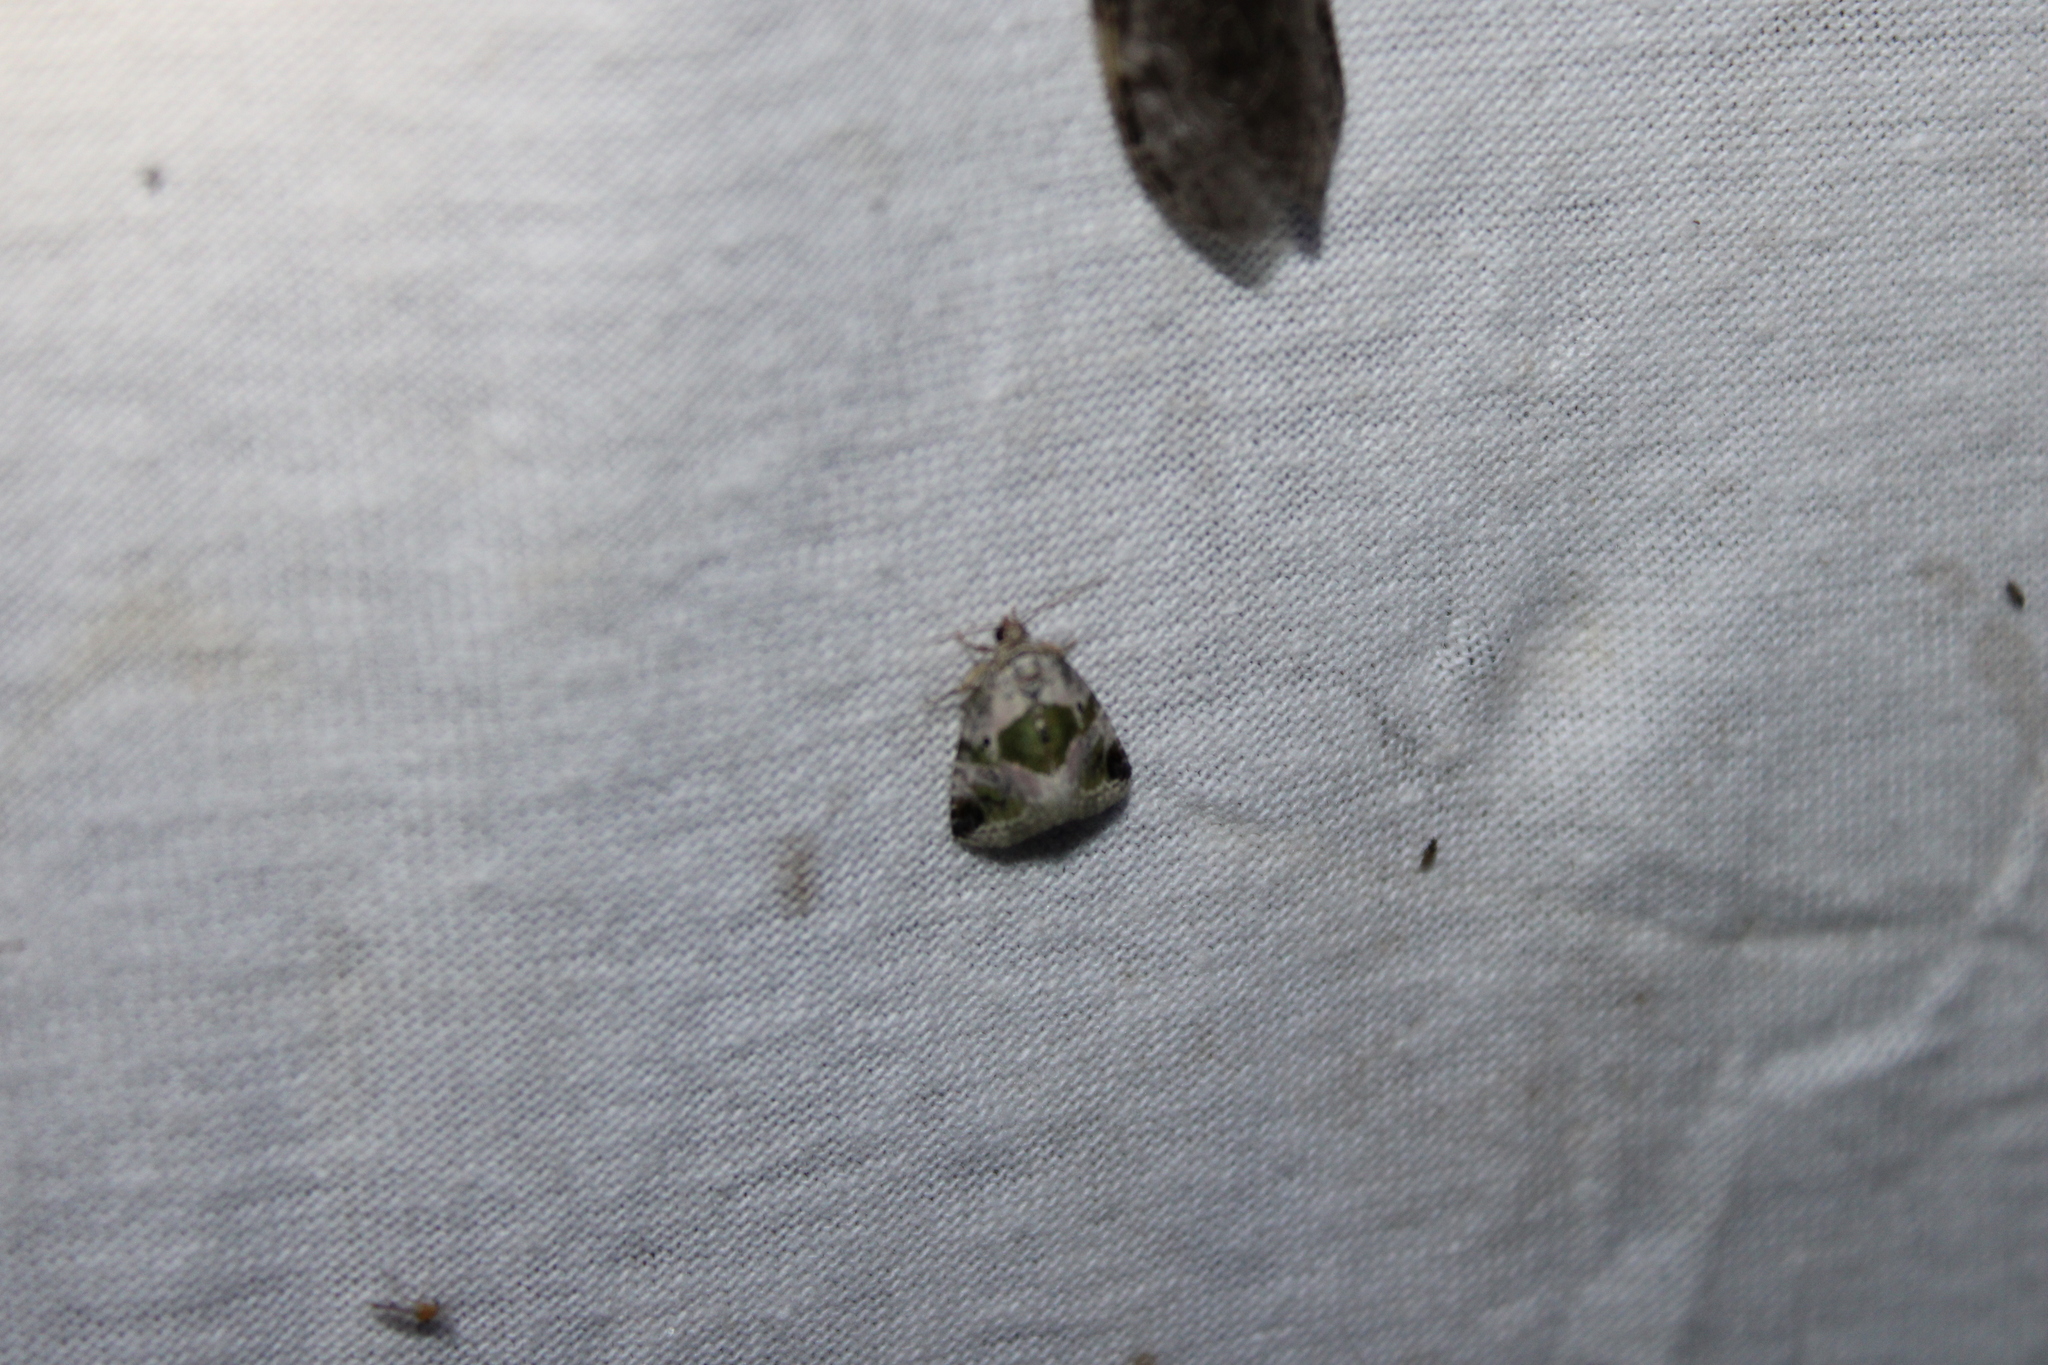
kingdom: Animalia
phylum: Arthropoda
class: Insecta
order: Lepidoptera
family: Noctuidae
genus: Maliattha
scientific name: Maliattha synochitis
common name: Black-dotted glyph
